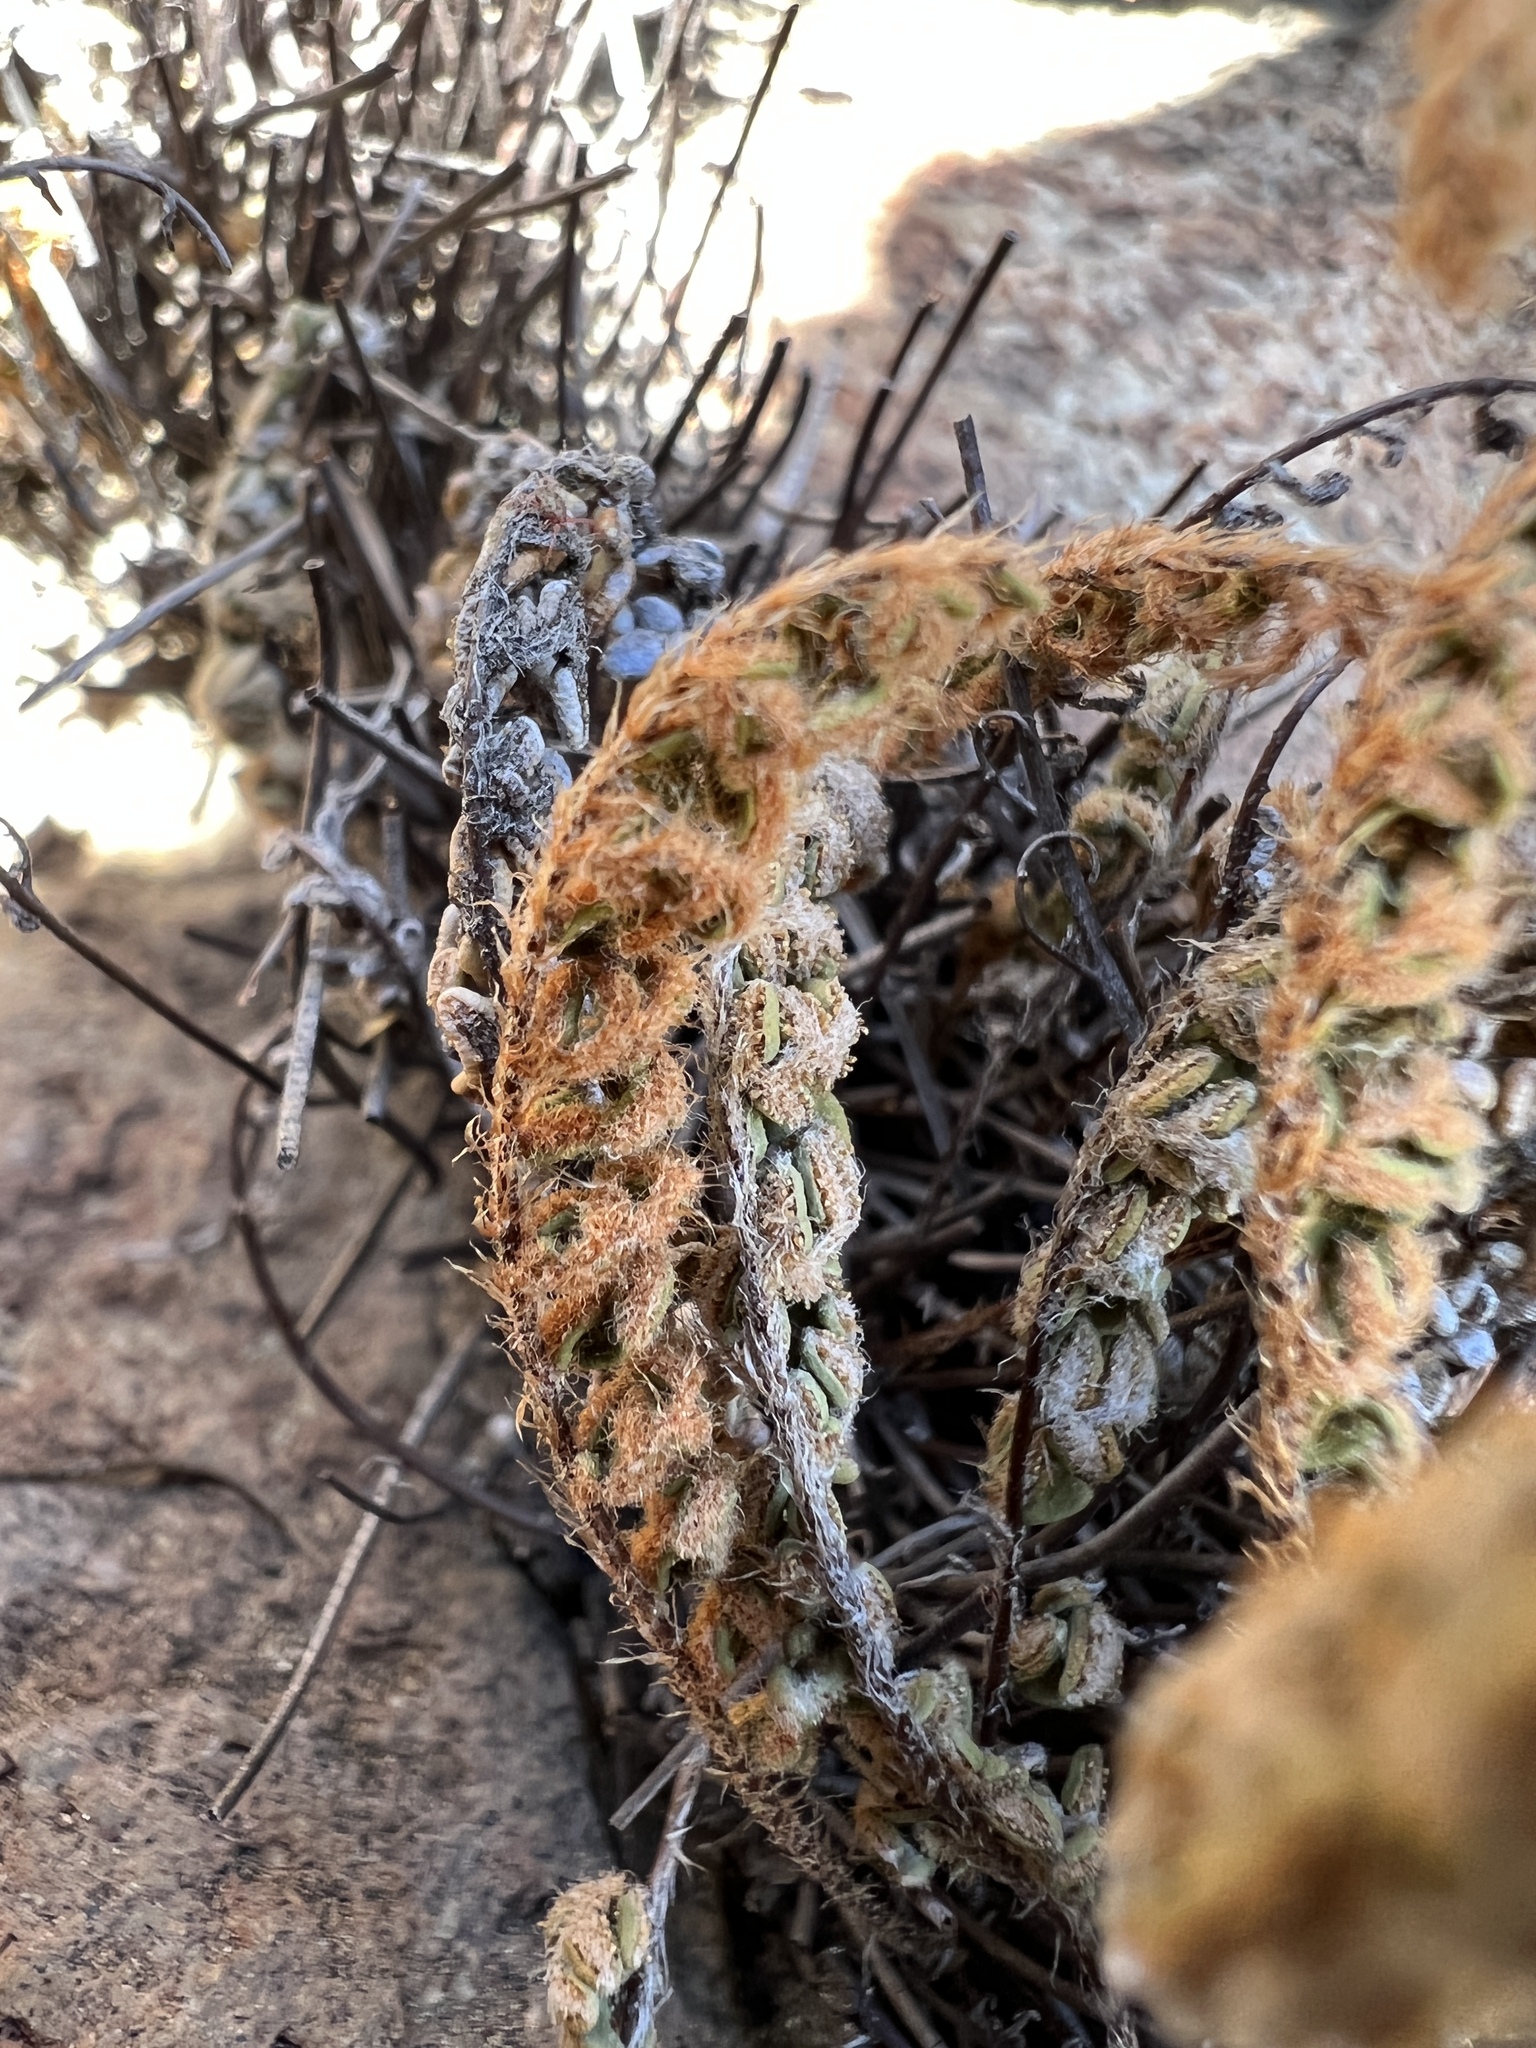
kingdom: Plantae
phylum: Tracheophyta
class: Polypodiopsida
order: Polypodiales
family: Pteridaceae
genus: Myriopteris
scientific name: Myriopteris gracillima
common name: Lace fern
